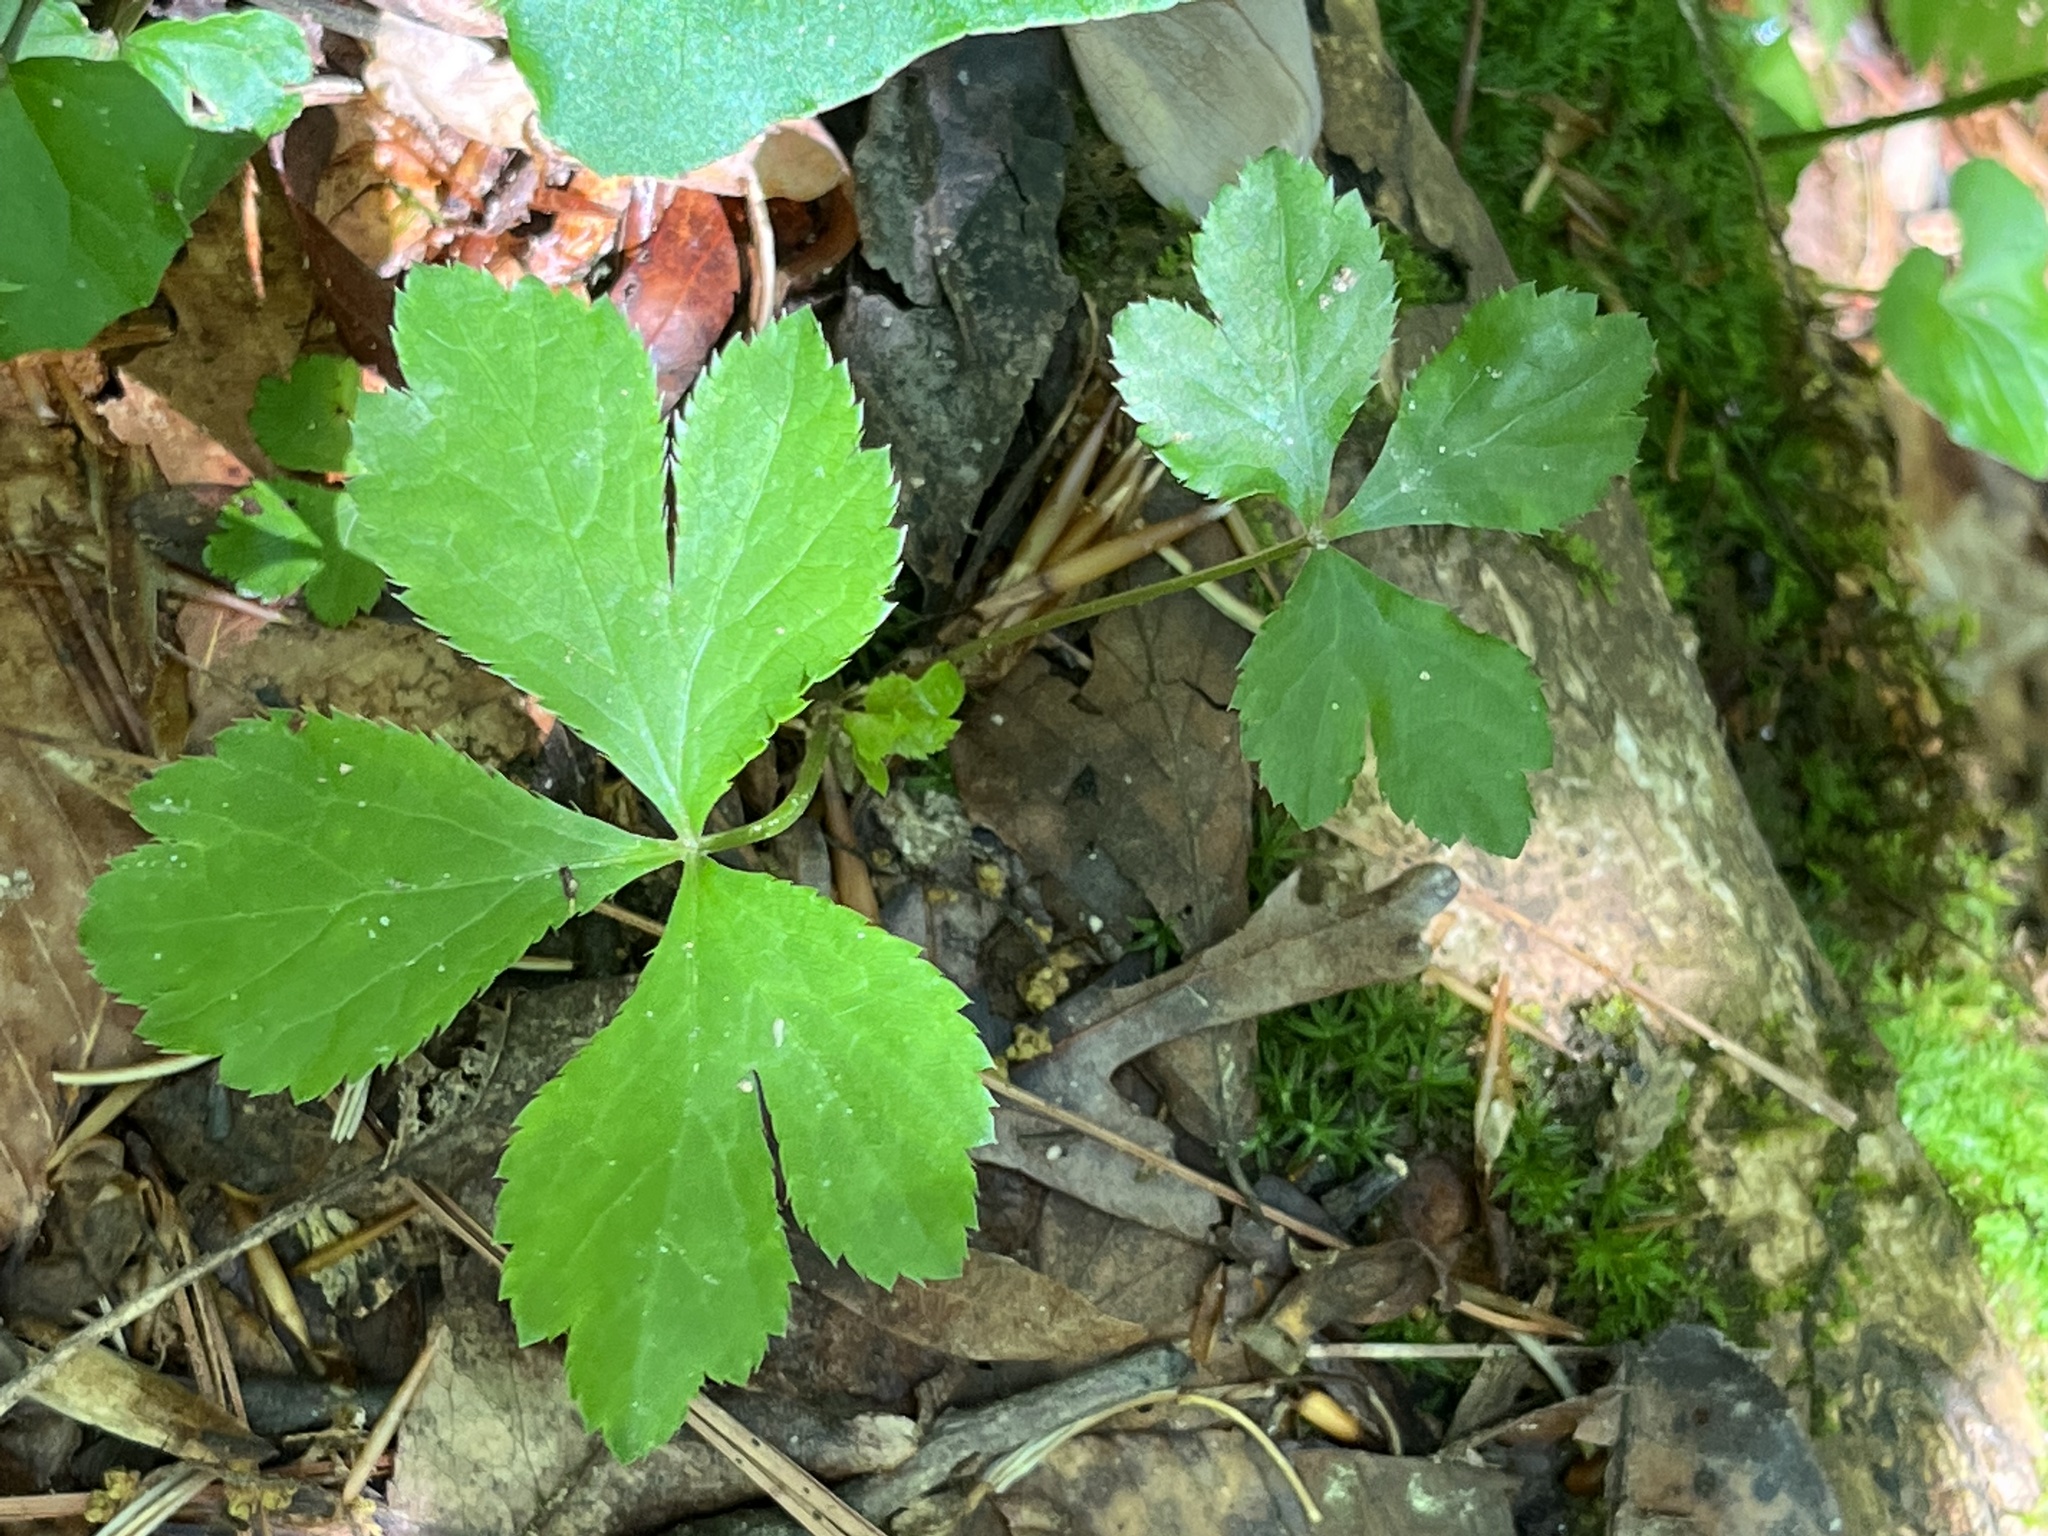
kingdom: Plantae
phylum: Tracheophyta
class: Magnoliopsida
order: Apiales
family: Apiaceae
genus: Sanicula
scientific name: Sanicula canadensis
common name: Canada sanicle
